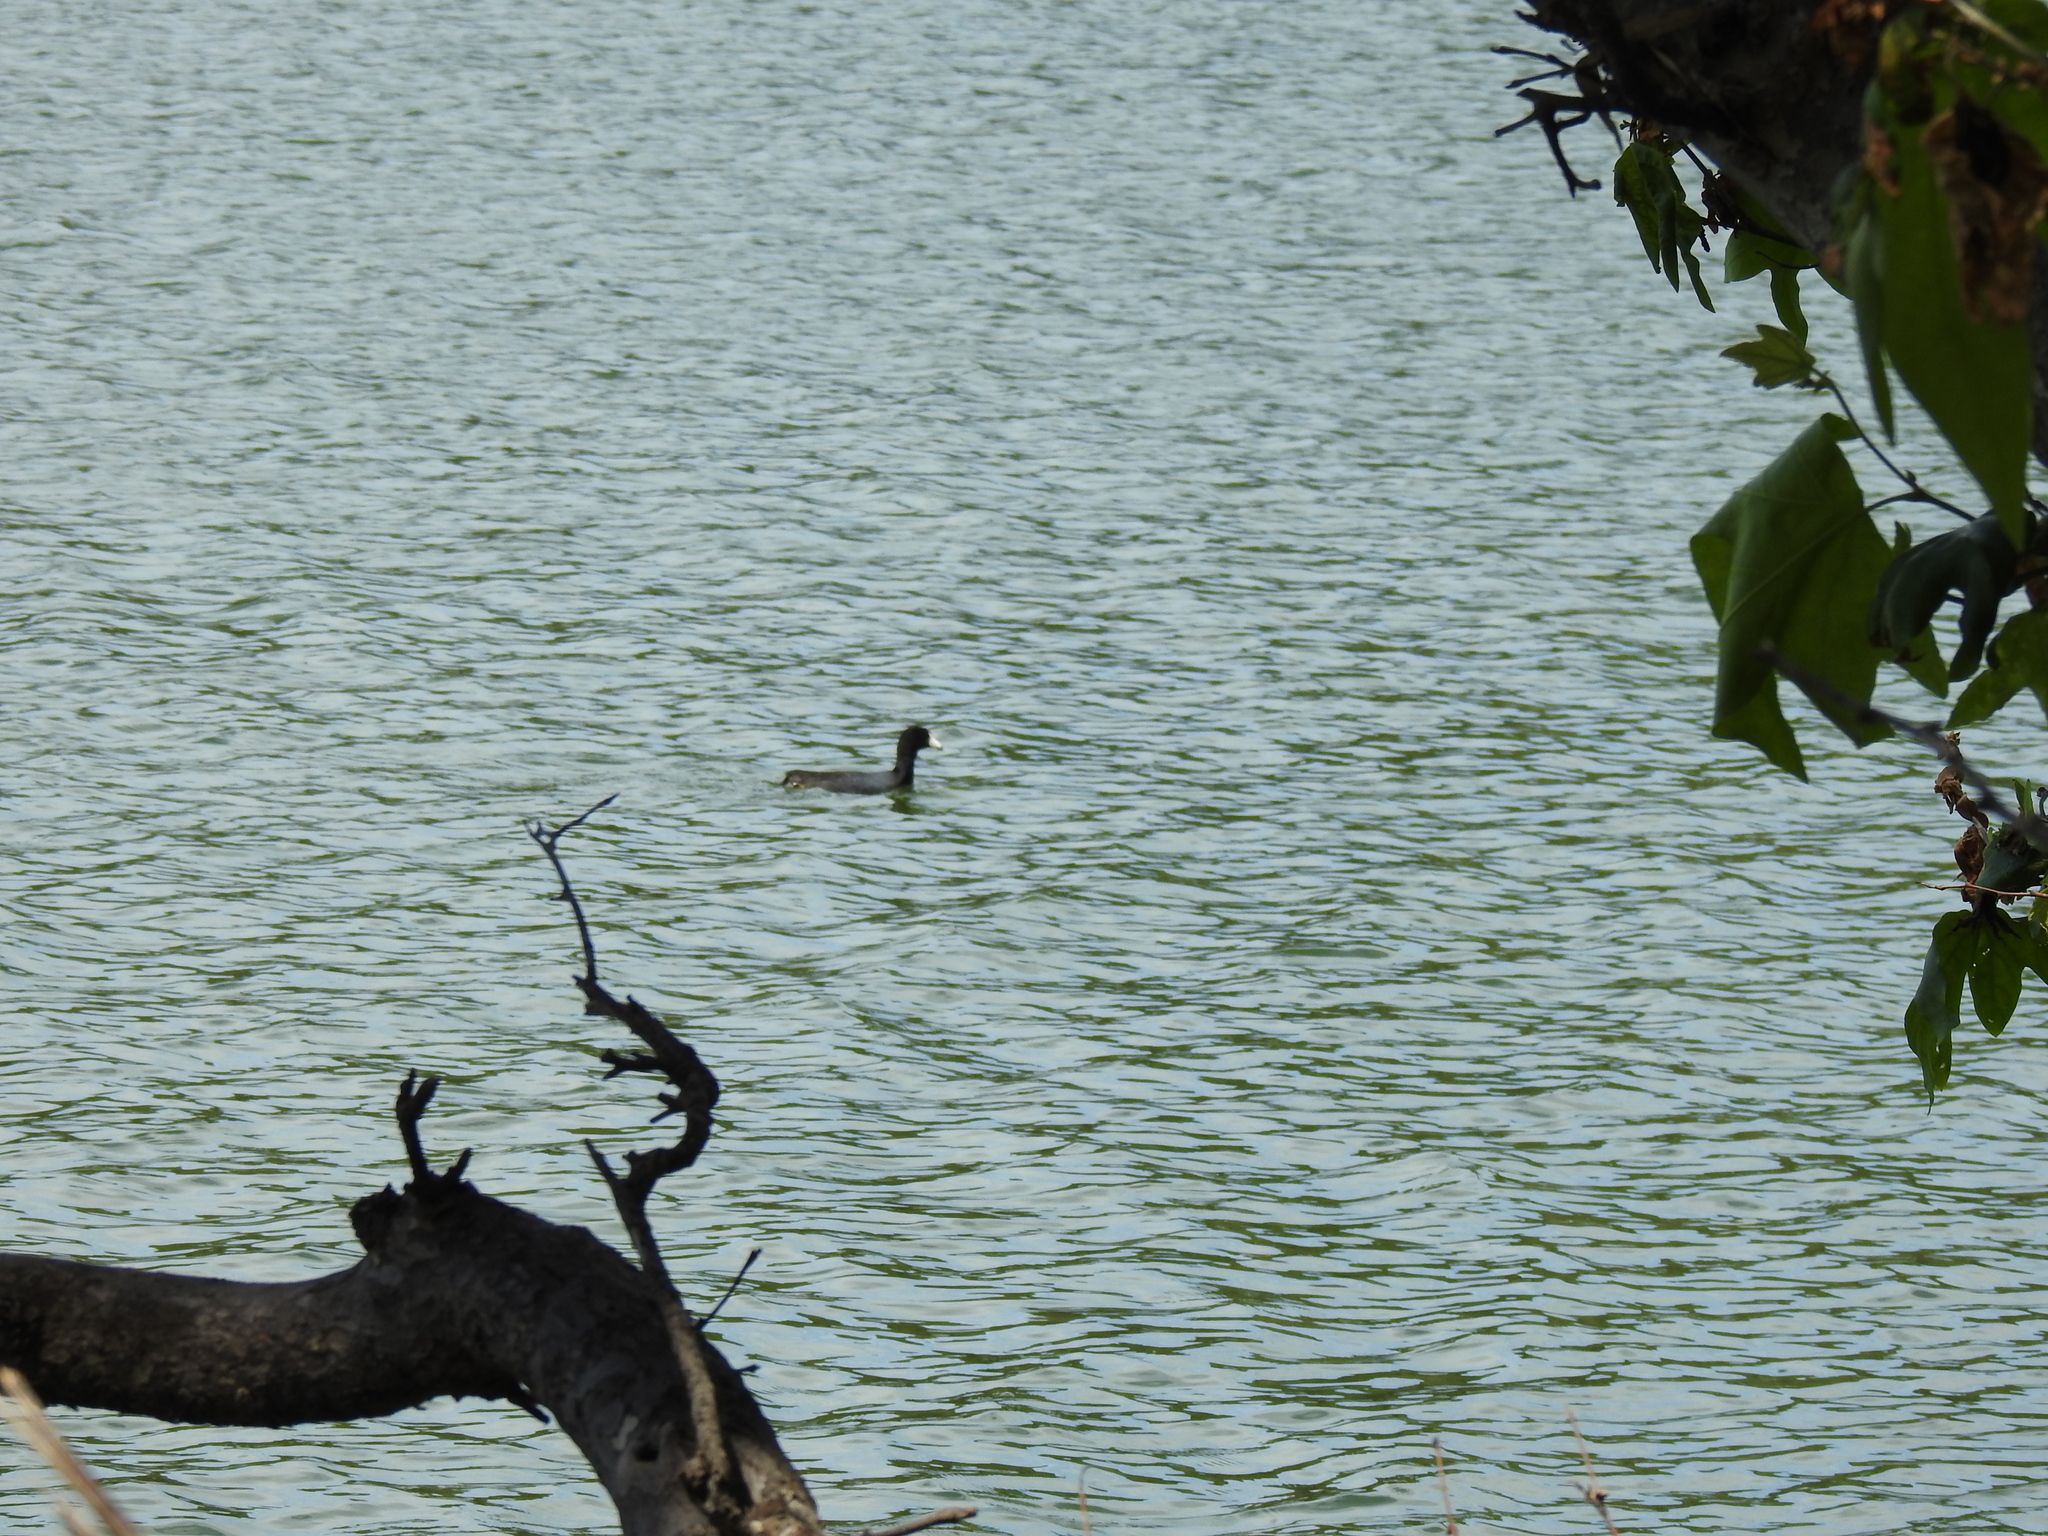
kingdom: Animalia
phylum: Chordata
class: Aves
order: Gruiformes
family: Rallidae
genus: Fulica
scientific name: Fulica americana
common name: American coot
